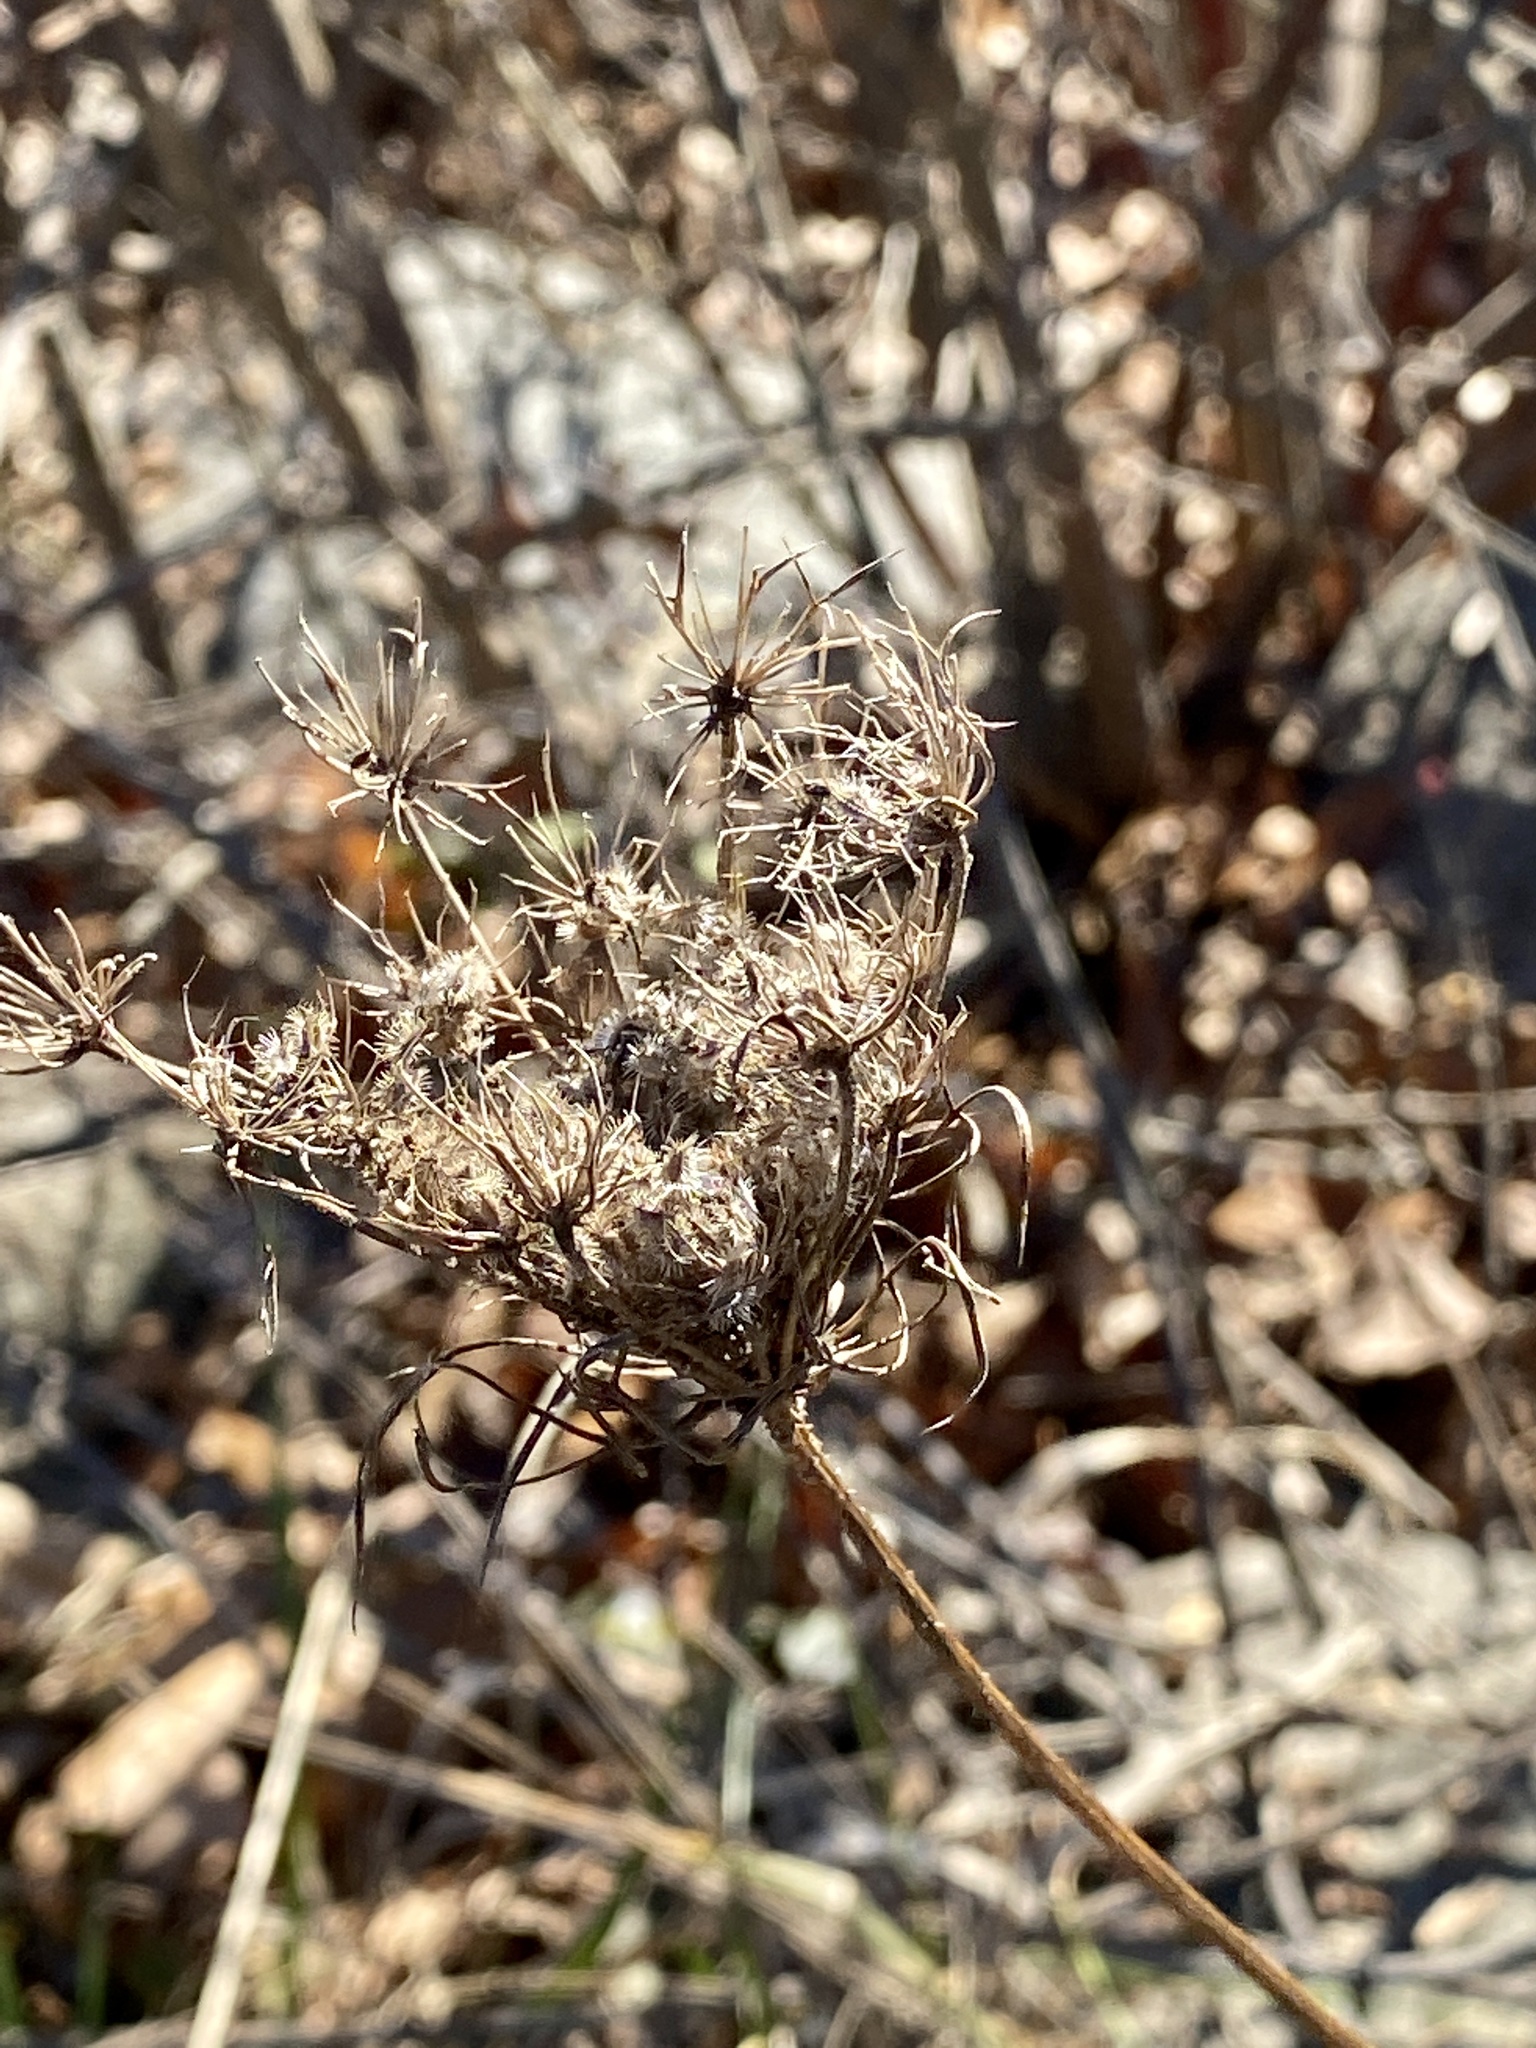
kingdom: Plantae
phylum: Tracheophyta
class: Magnoliopsida
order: Apiales
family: Apiaceae
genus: Daucus
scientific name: Daucus carota
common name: Wild carrot
